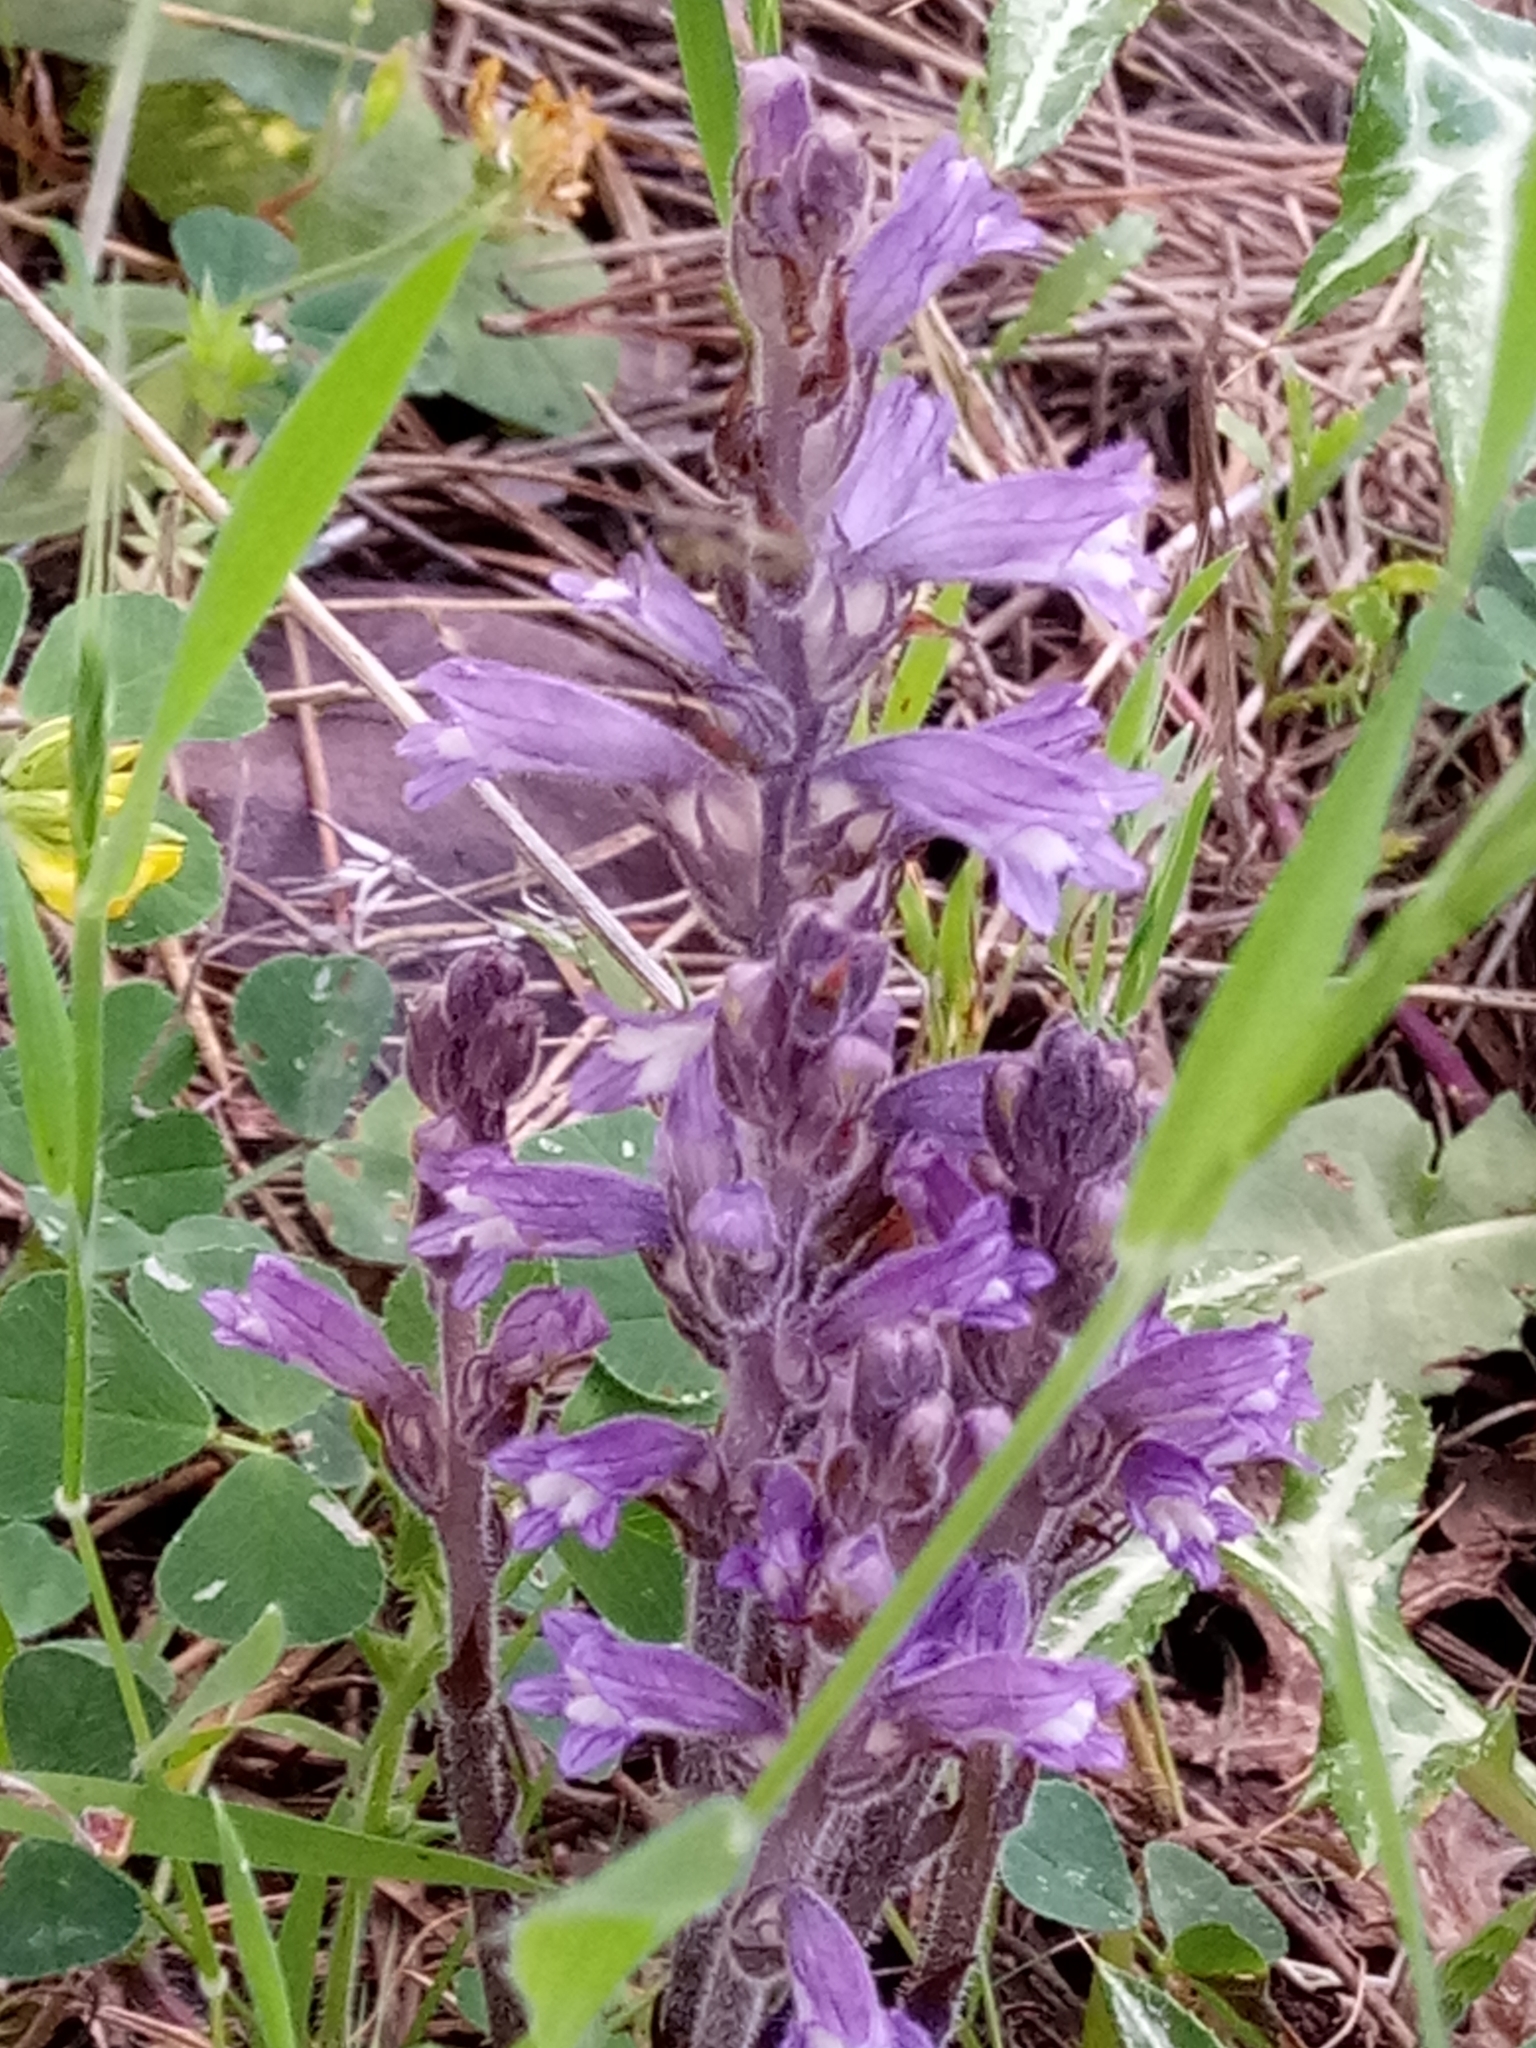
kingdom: Plantae
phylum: Tracheophyta
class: Magnoliopsida
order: Lamiales
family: Orobanchaceae
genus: Phelipanche
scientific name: Phelipanche mutelii
